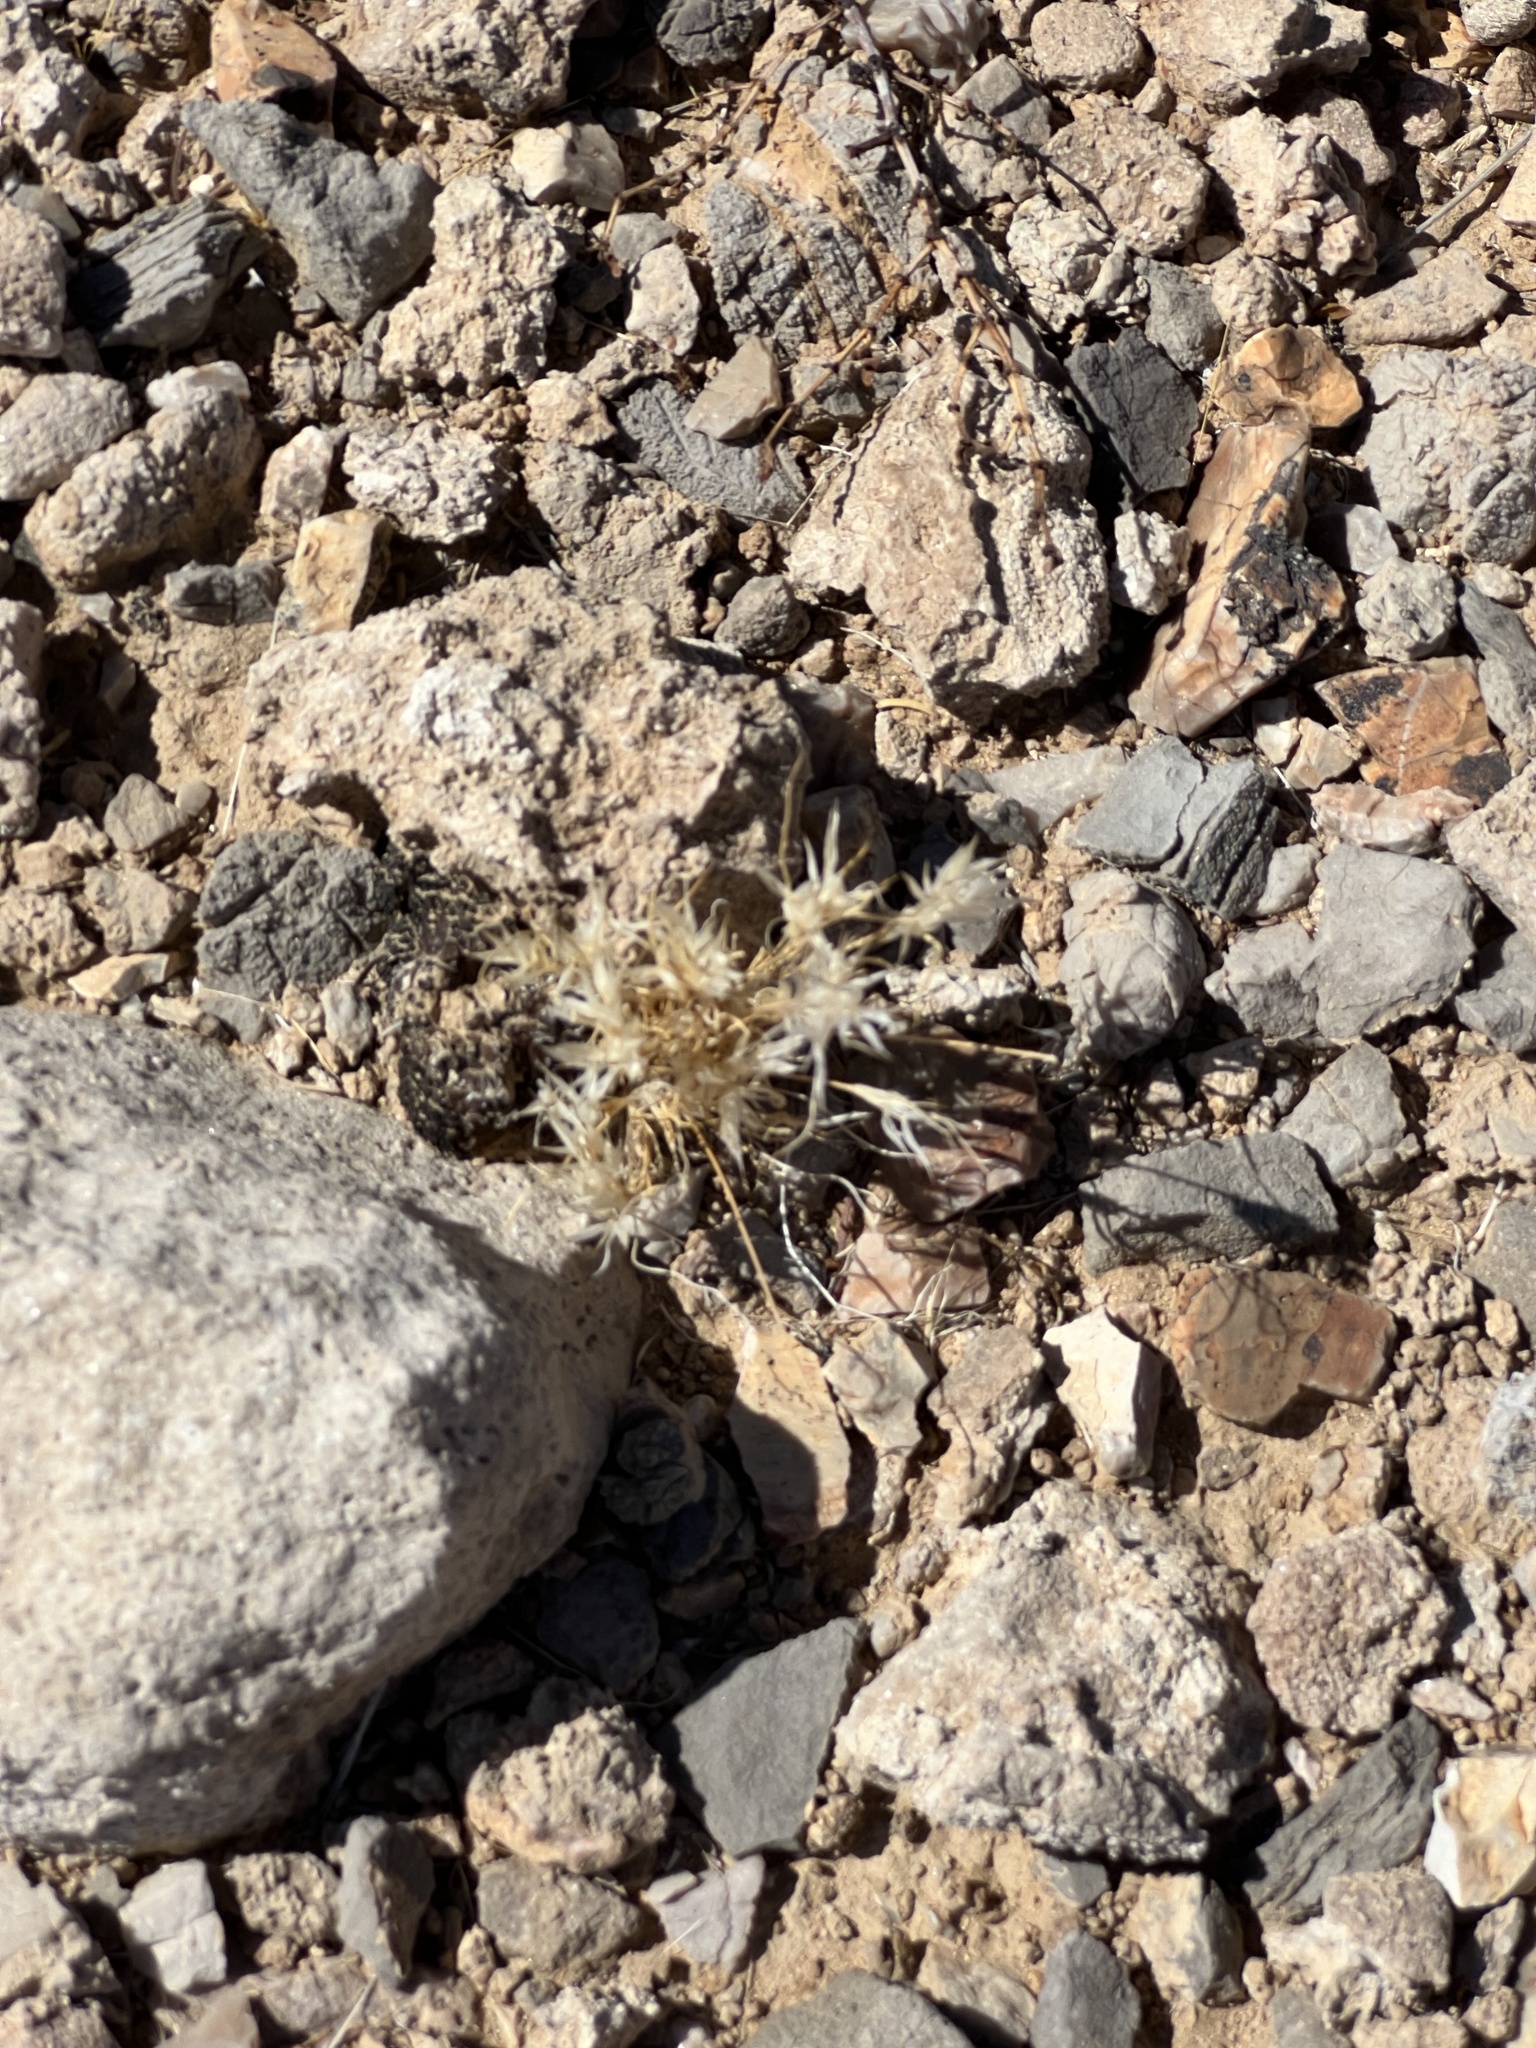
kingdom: Plantae
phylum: Tracheophyta
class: Liliopsida
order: Poales
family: Poaceae
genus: Dasyochloa
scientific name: Dasyochloa pulchella
